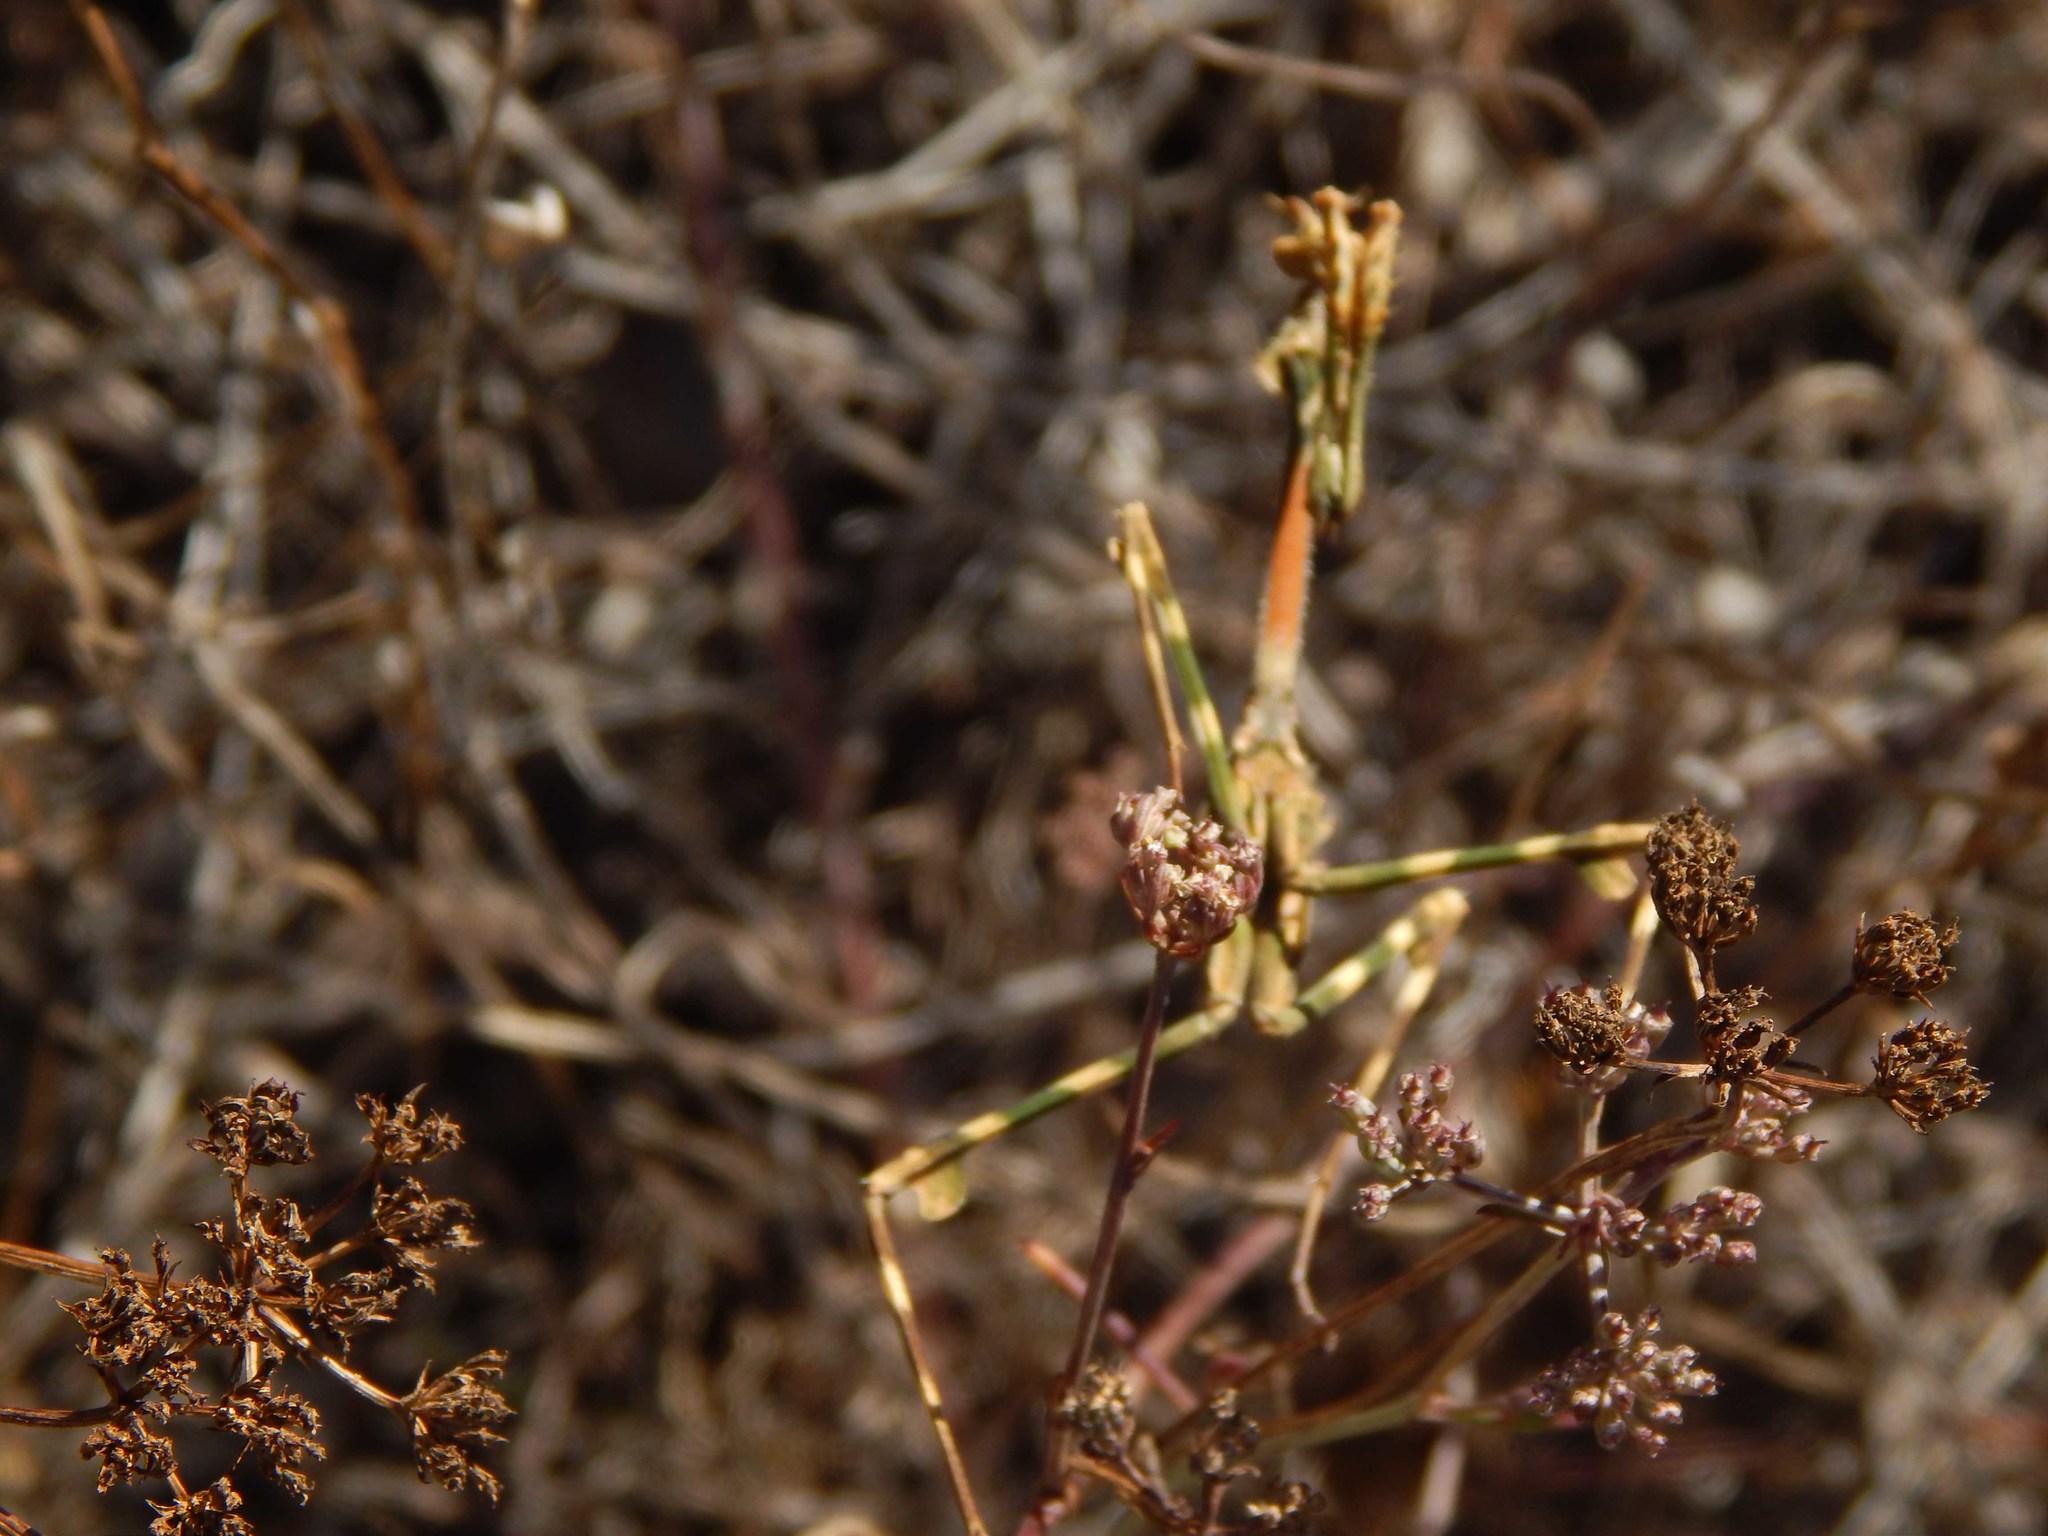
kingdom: Animalia
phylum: Arthropoda
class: Insecta
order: Mantodea
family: Empusidae
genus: Empusa
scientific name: Empusa binotata
